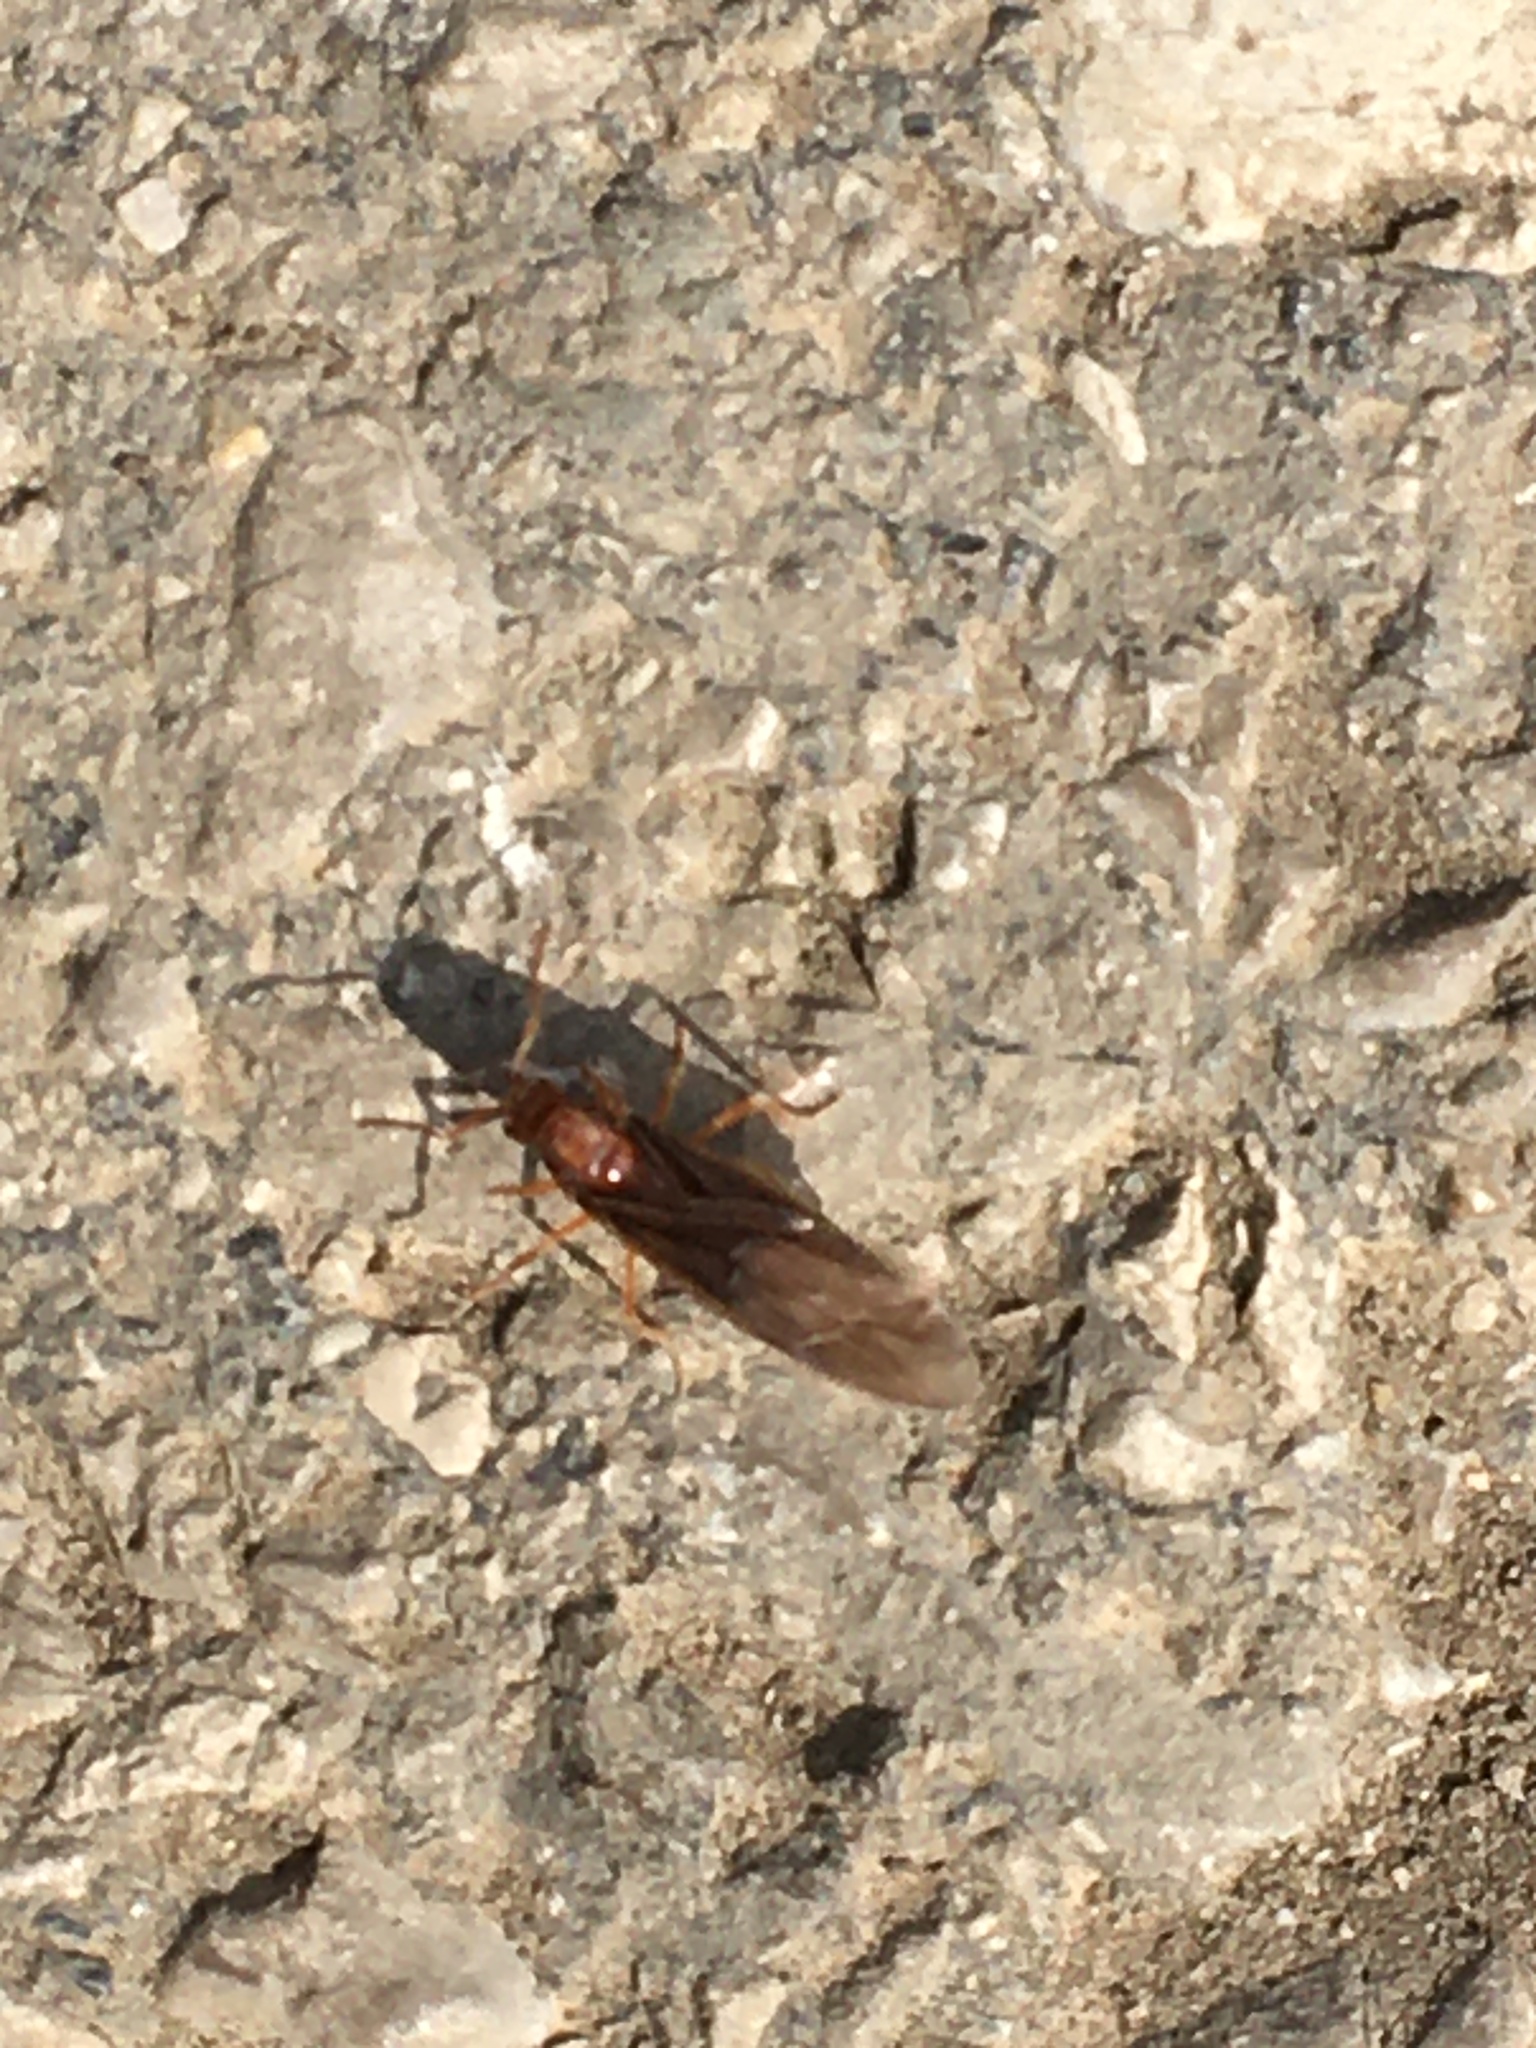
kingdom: Animalia
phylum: Arthropoda
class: Insecta
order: Hymenoptera
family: Formicidae
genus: Prenolepis
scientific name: Prenolepis nitens
